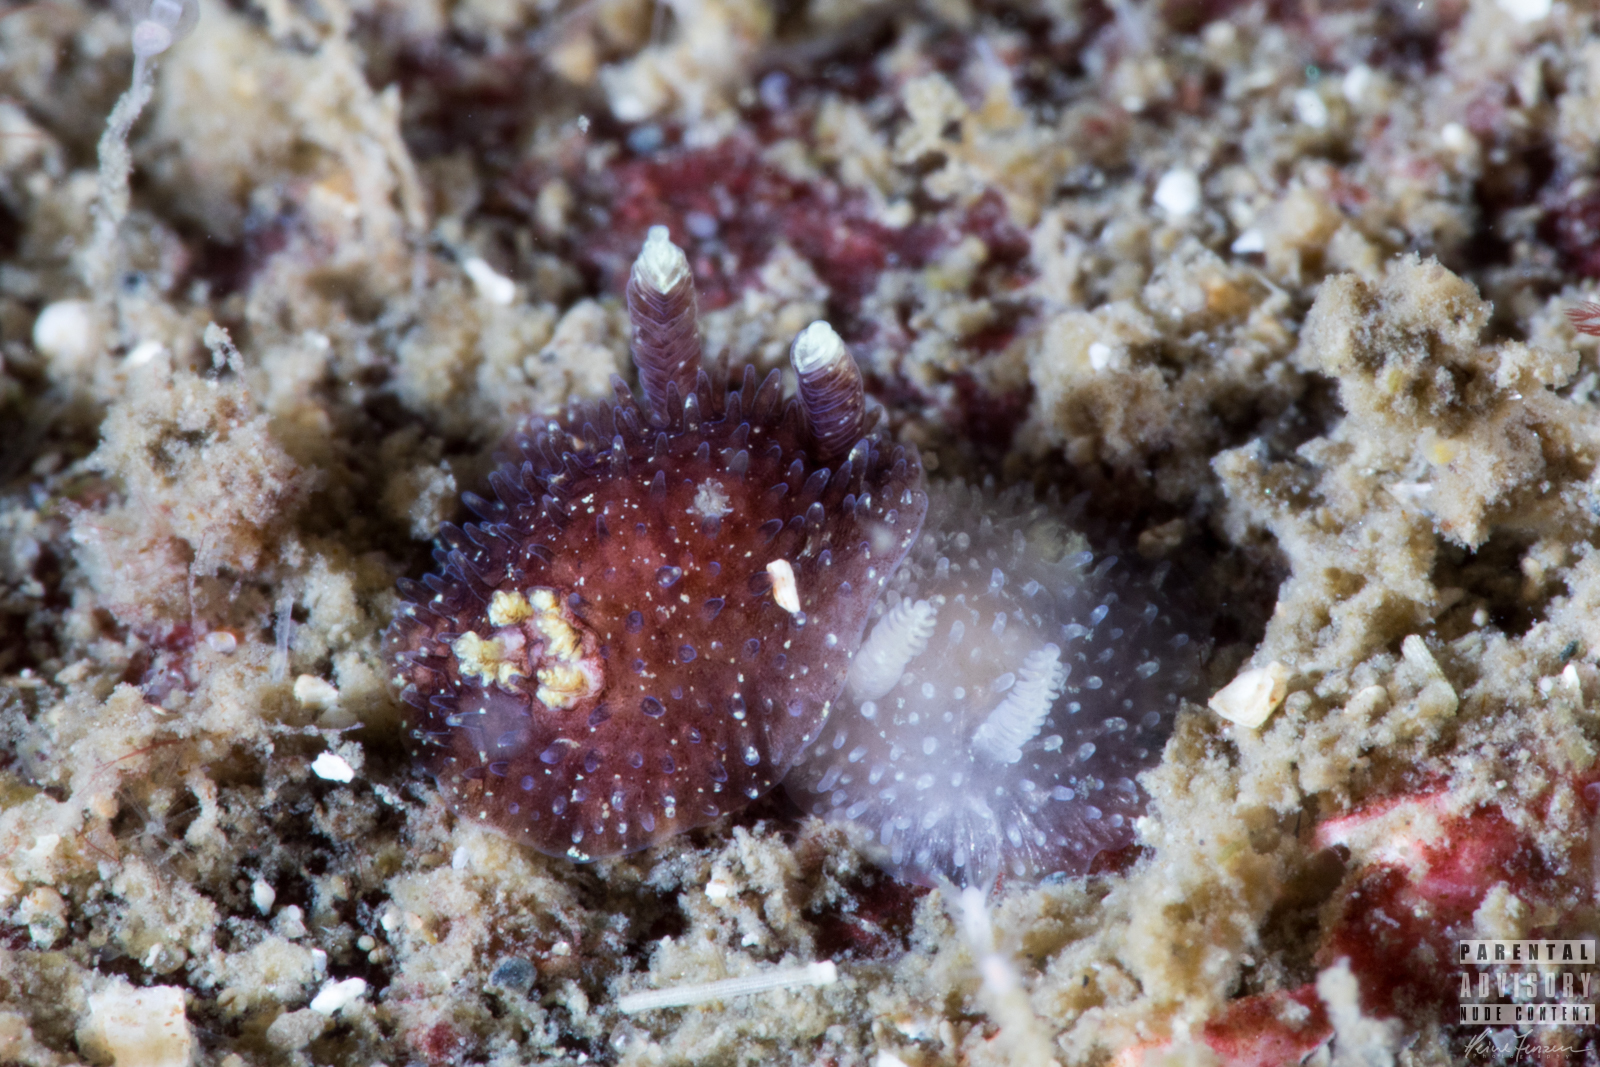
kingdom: Animalia
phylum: Mollusca
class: Gastropoda
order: Nudibranchia
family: Onchidorididae
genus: Acanthodoris
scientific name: Acanthodoris pilosa
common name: Hairy spiny doris
